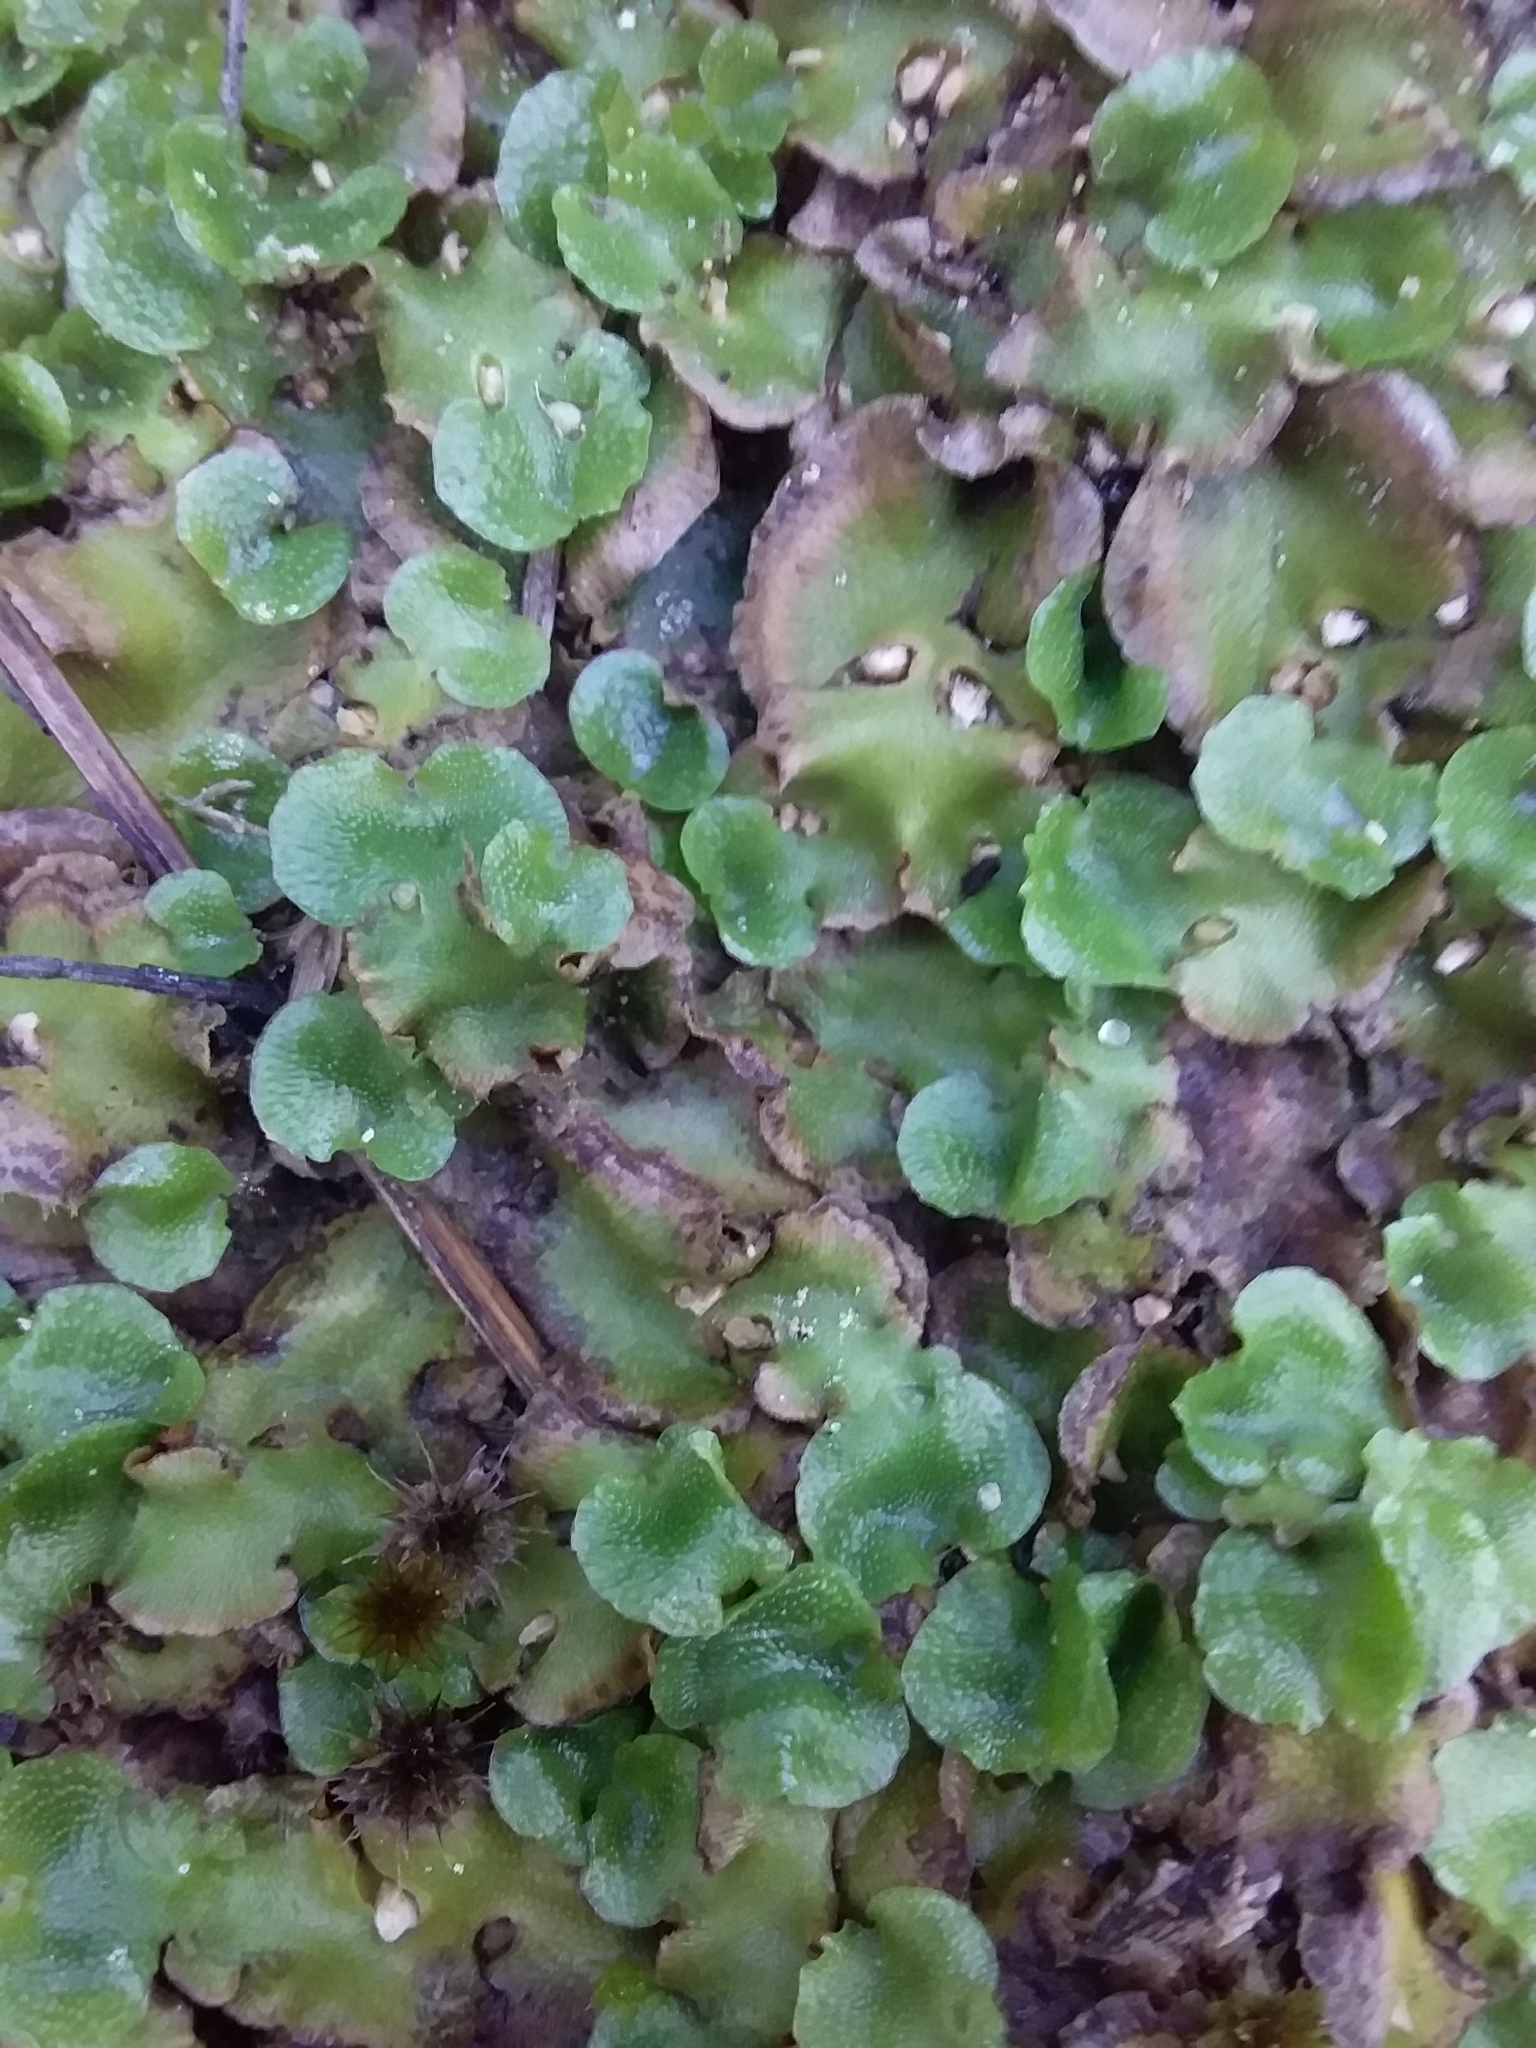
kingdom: Plantae
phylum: Marchantiophyta
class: Marchantiopsida
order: Lunulariales
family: Lunulariaceae
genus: Lunularia
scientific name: Lunularia cruciata
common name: Crescent-cup liverwort
